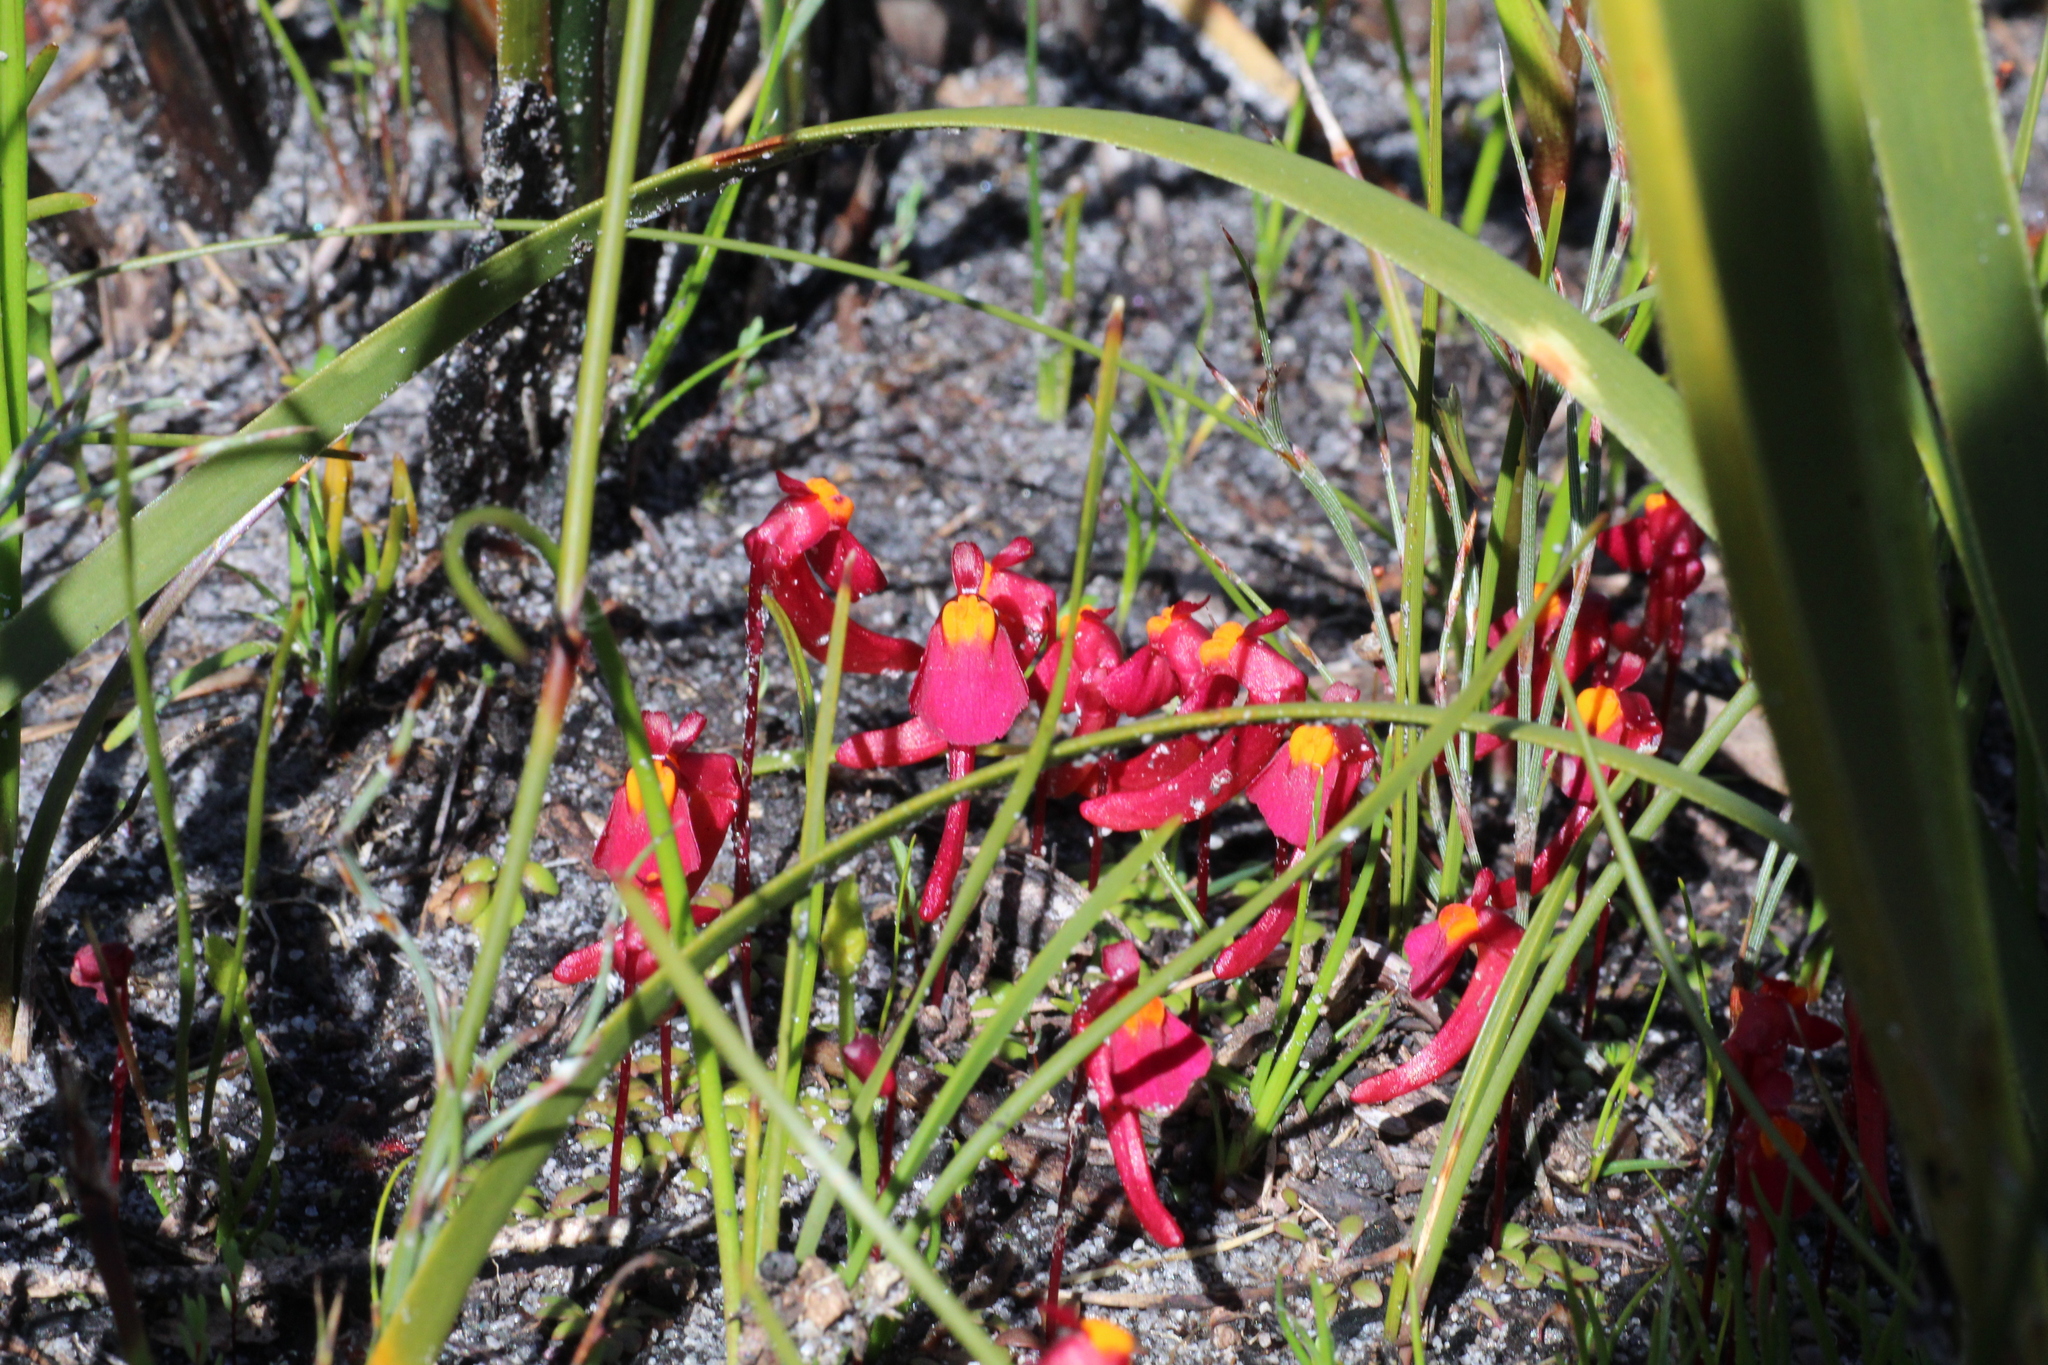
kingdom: Plantae
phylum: Tracheophyta
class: Magnoliopsida
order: Lamiales
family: Lentibulariaceae
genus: Utricularia
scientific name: Utricularia menziesii
